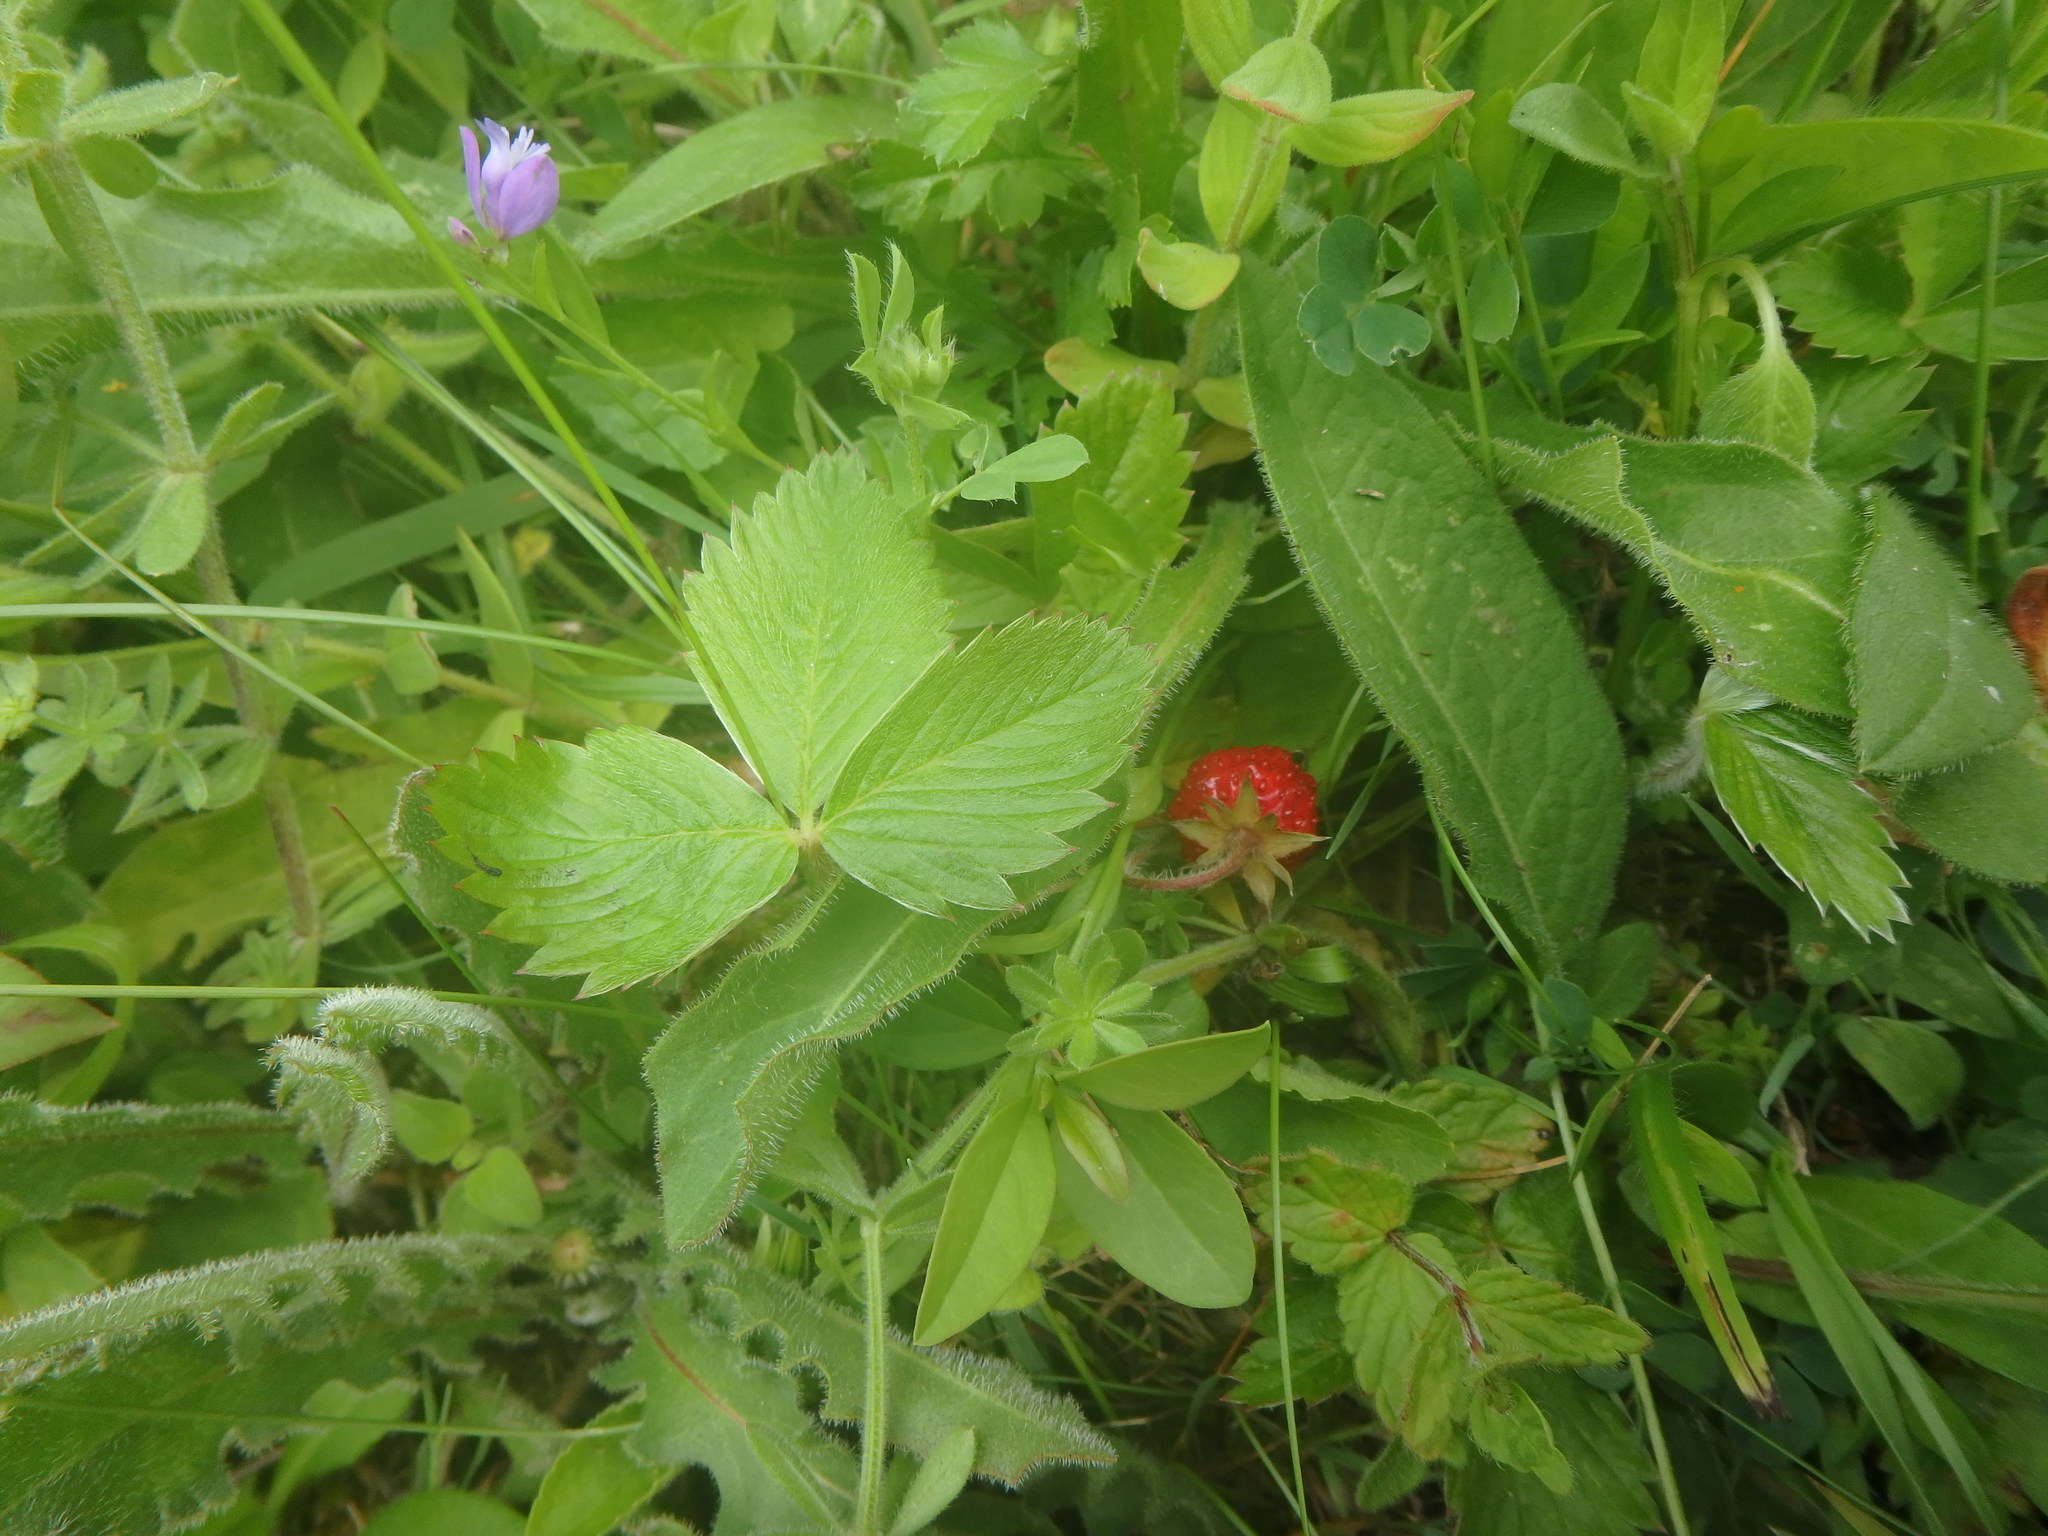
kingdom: Plantae
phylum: Tracheophyta
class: Magnoliopsida
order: Rosales
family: Rosaceae
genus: Fragaria
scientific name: Fragaria vesca
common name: Wild strawberry
